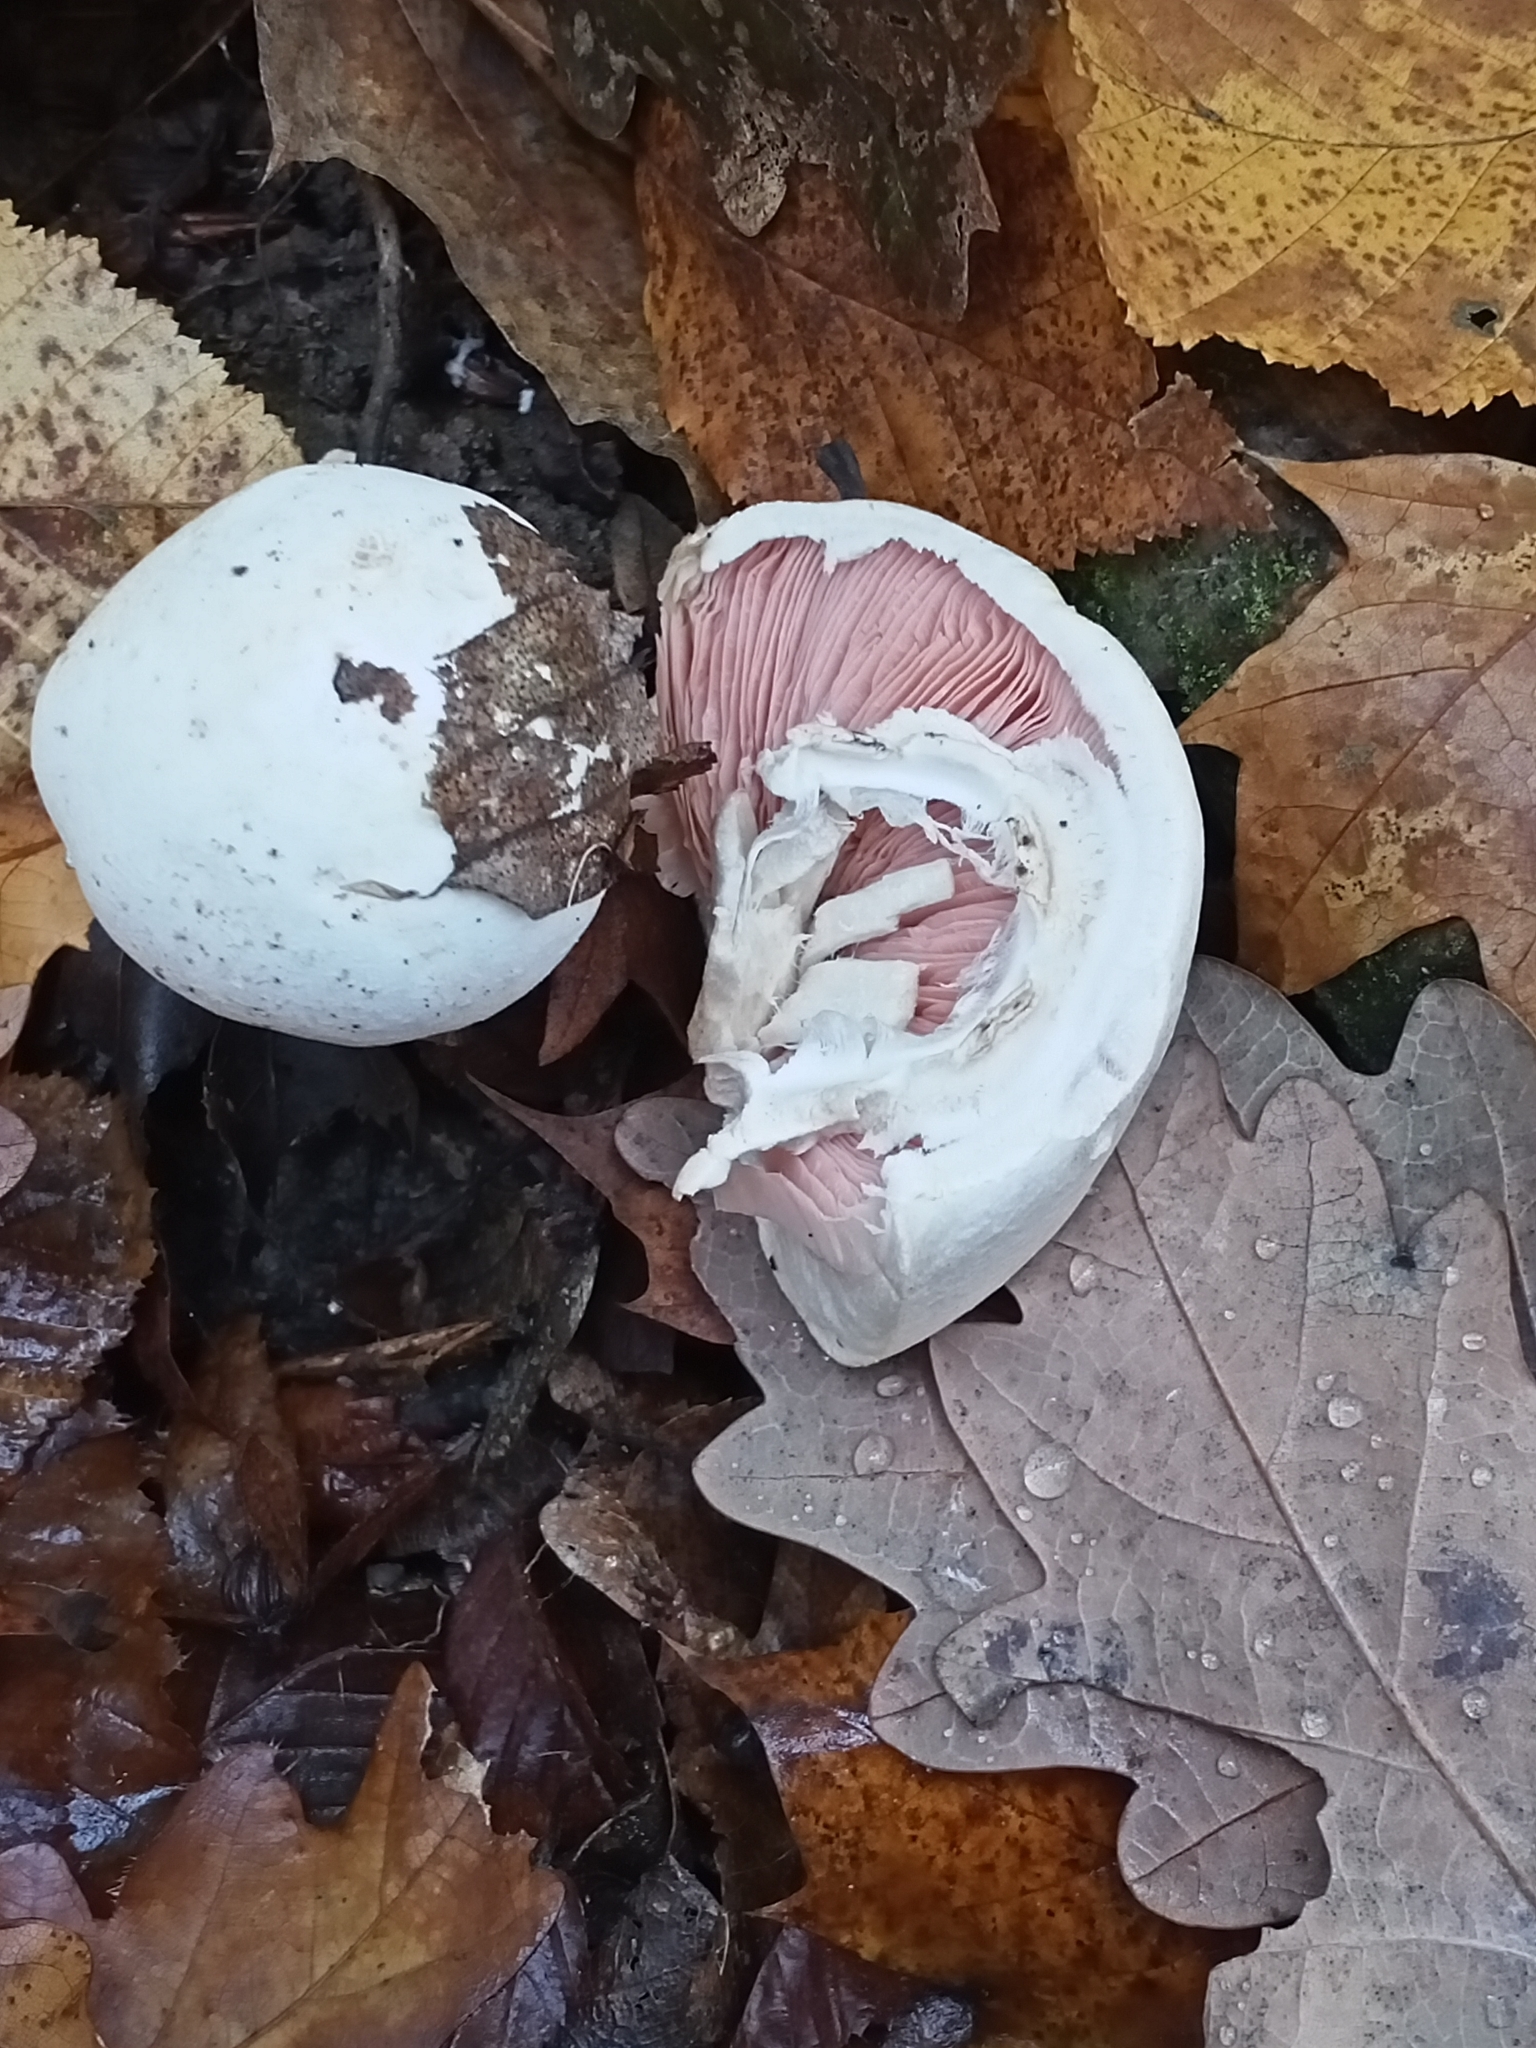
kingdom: Fungi
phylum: Basidiomycota
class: Agaricomycetes
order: Agaricales
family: Agaricaceae
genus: Agaricus
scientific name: Agaricus campestris
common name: Field mushroom
